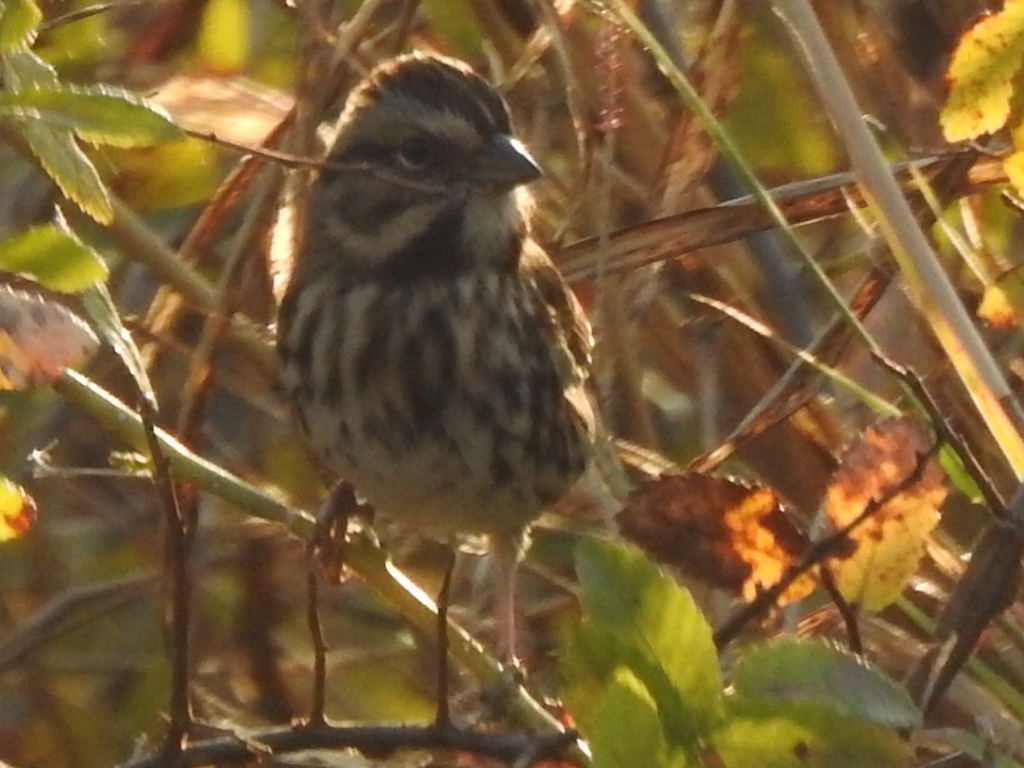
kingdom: Animalia
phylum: Chordata
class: Aves
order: Passeriformes
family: Passerellidae
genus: Melospiza
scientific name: Melospiza melodia
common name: Song sparrow
